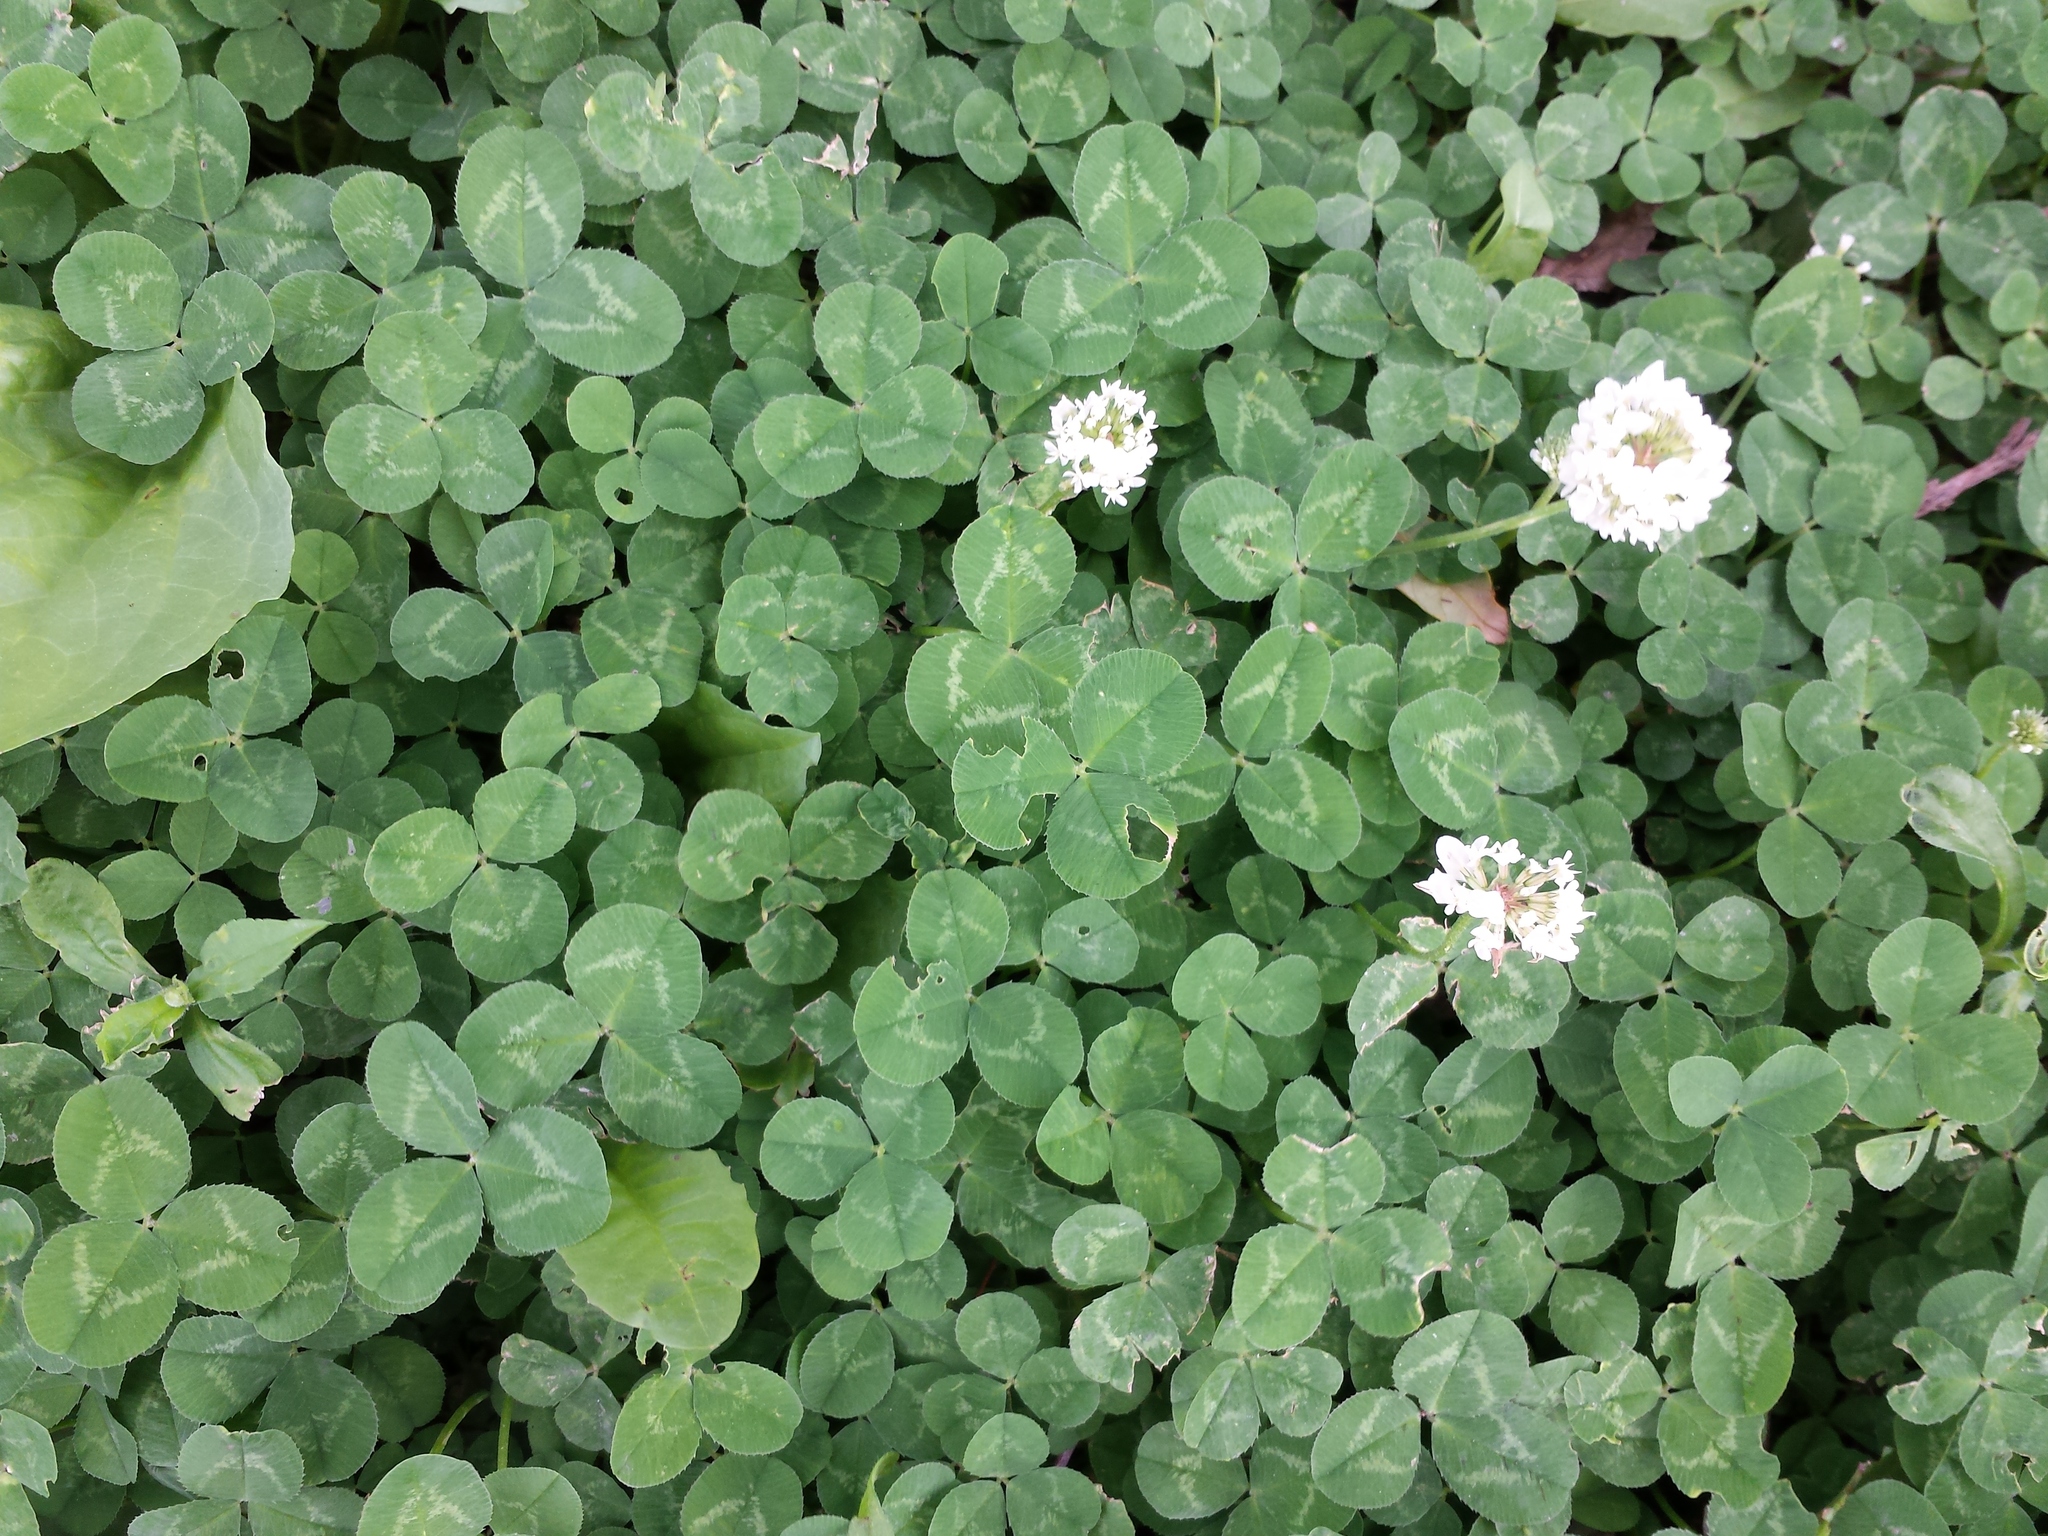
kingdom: Plantae
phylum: Tracheophyta
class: Magnoliopsida
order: Fabales
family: Fabaceae
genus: Trifolium
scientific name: Trifolium repens
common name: White clover
